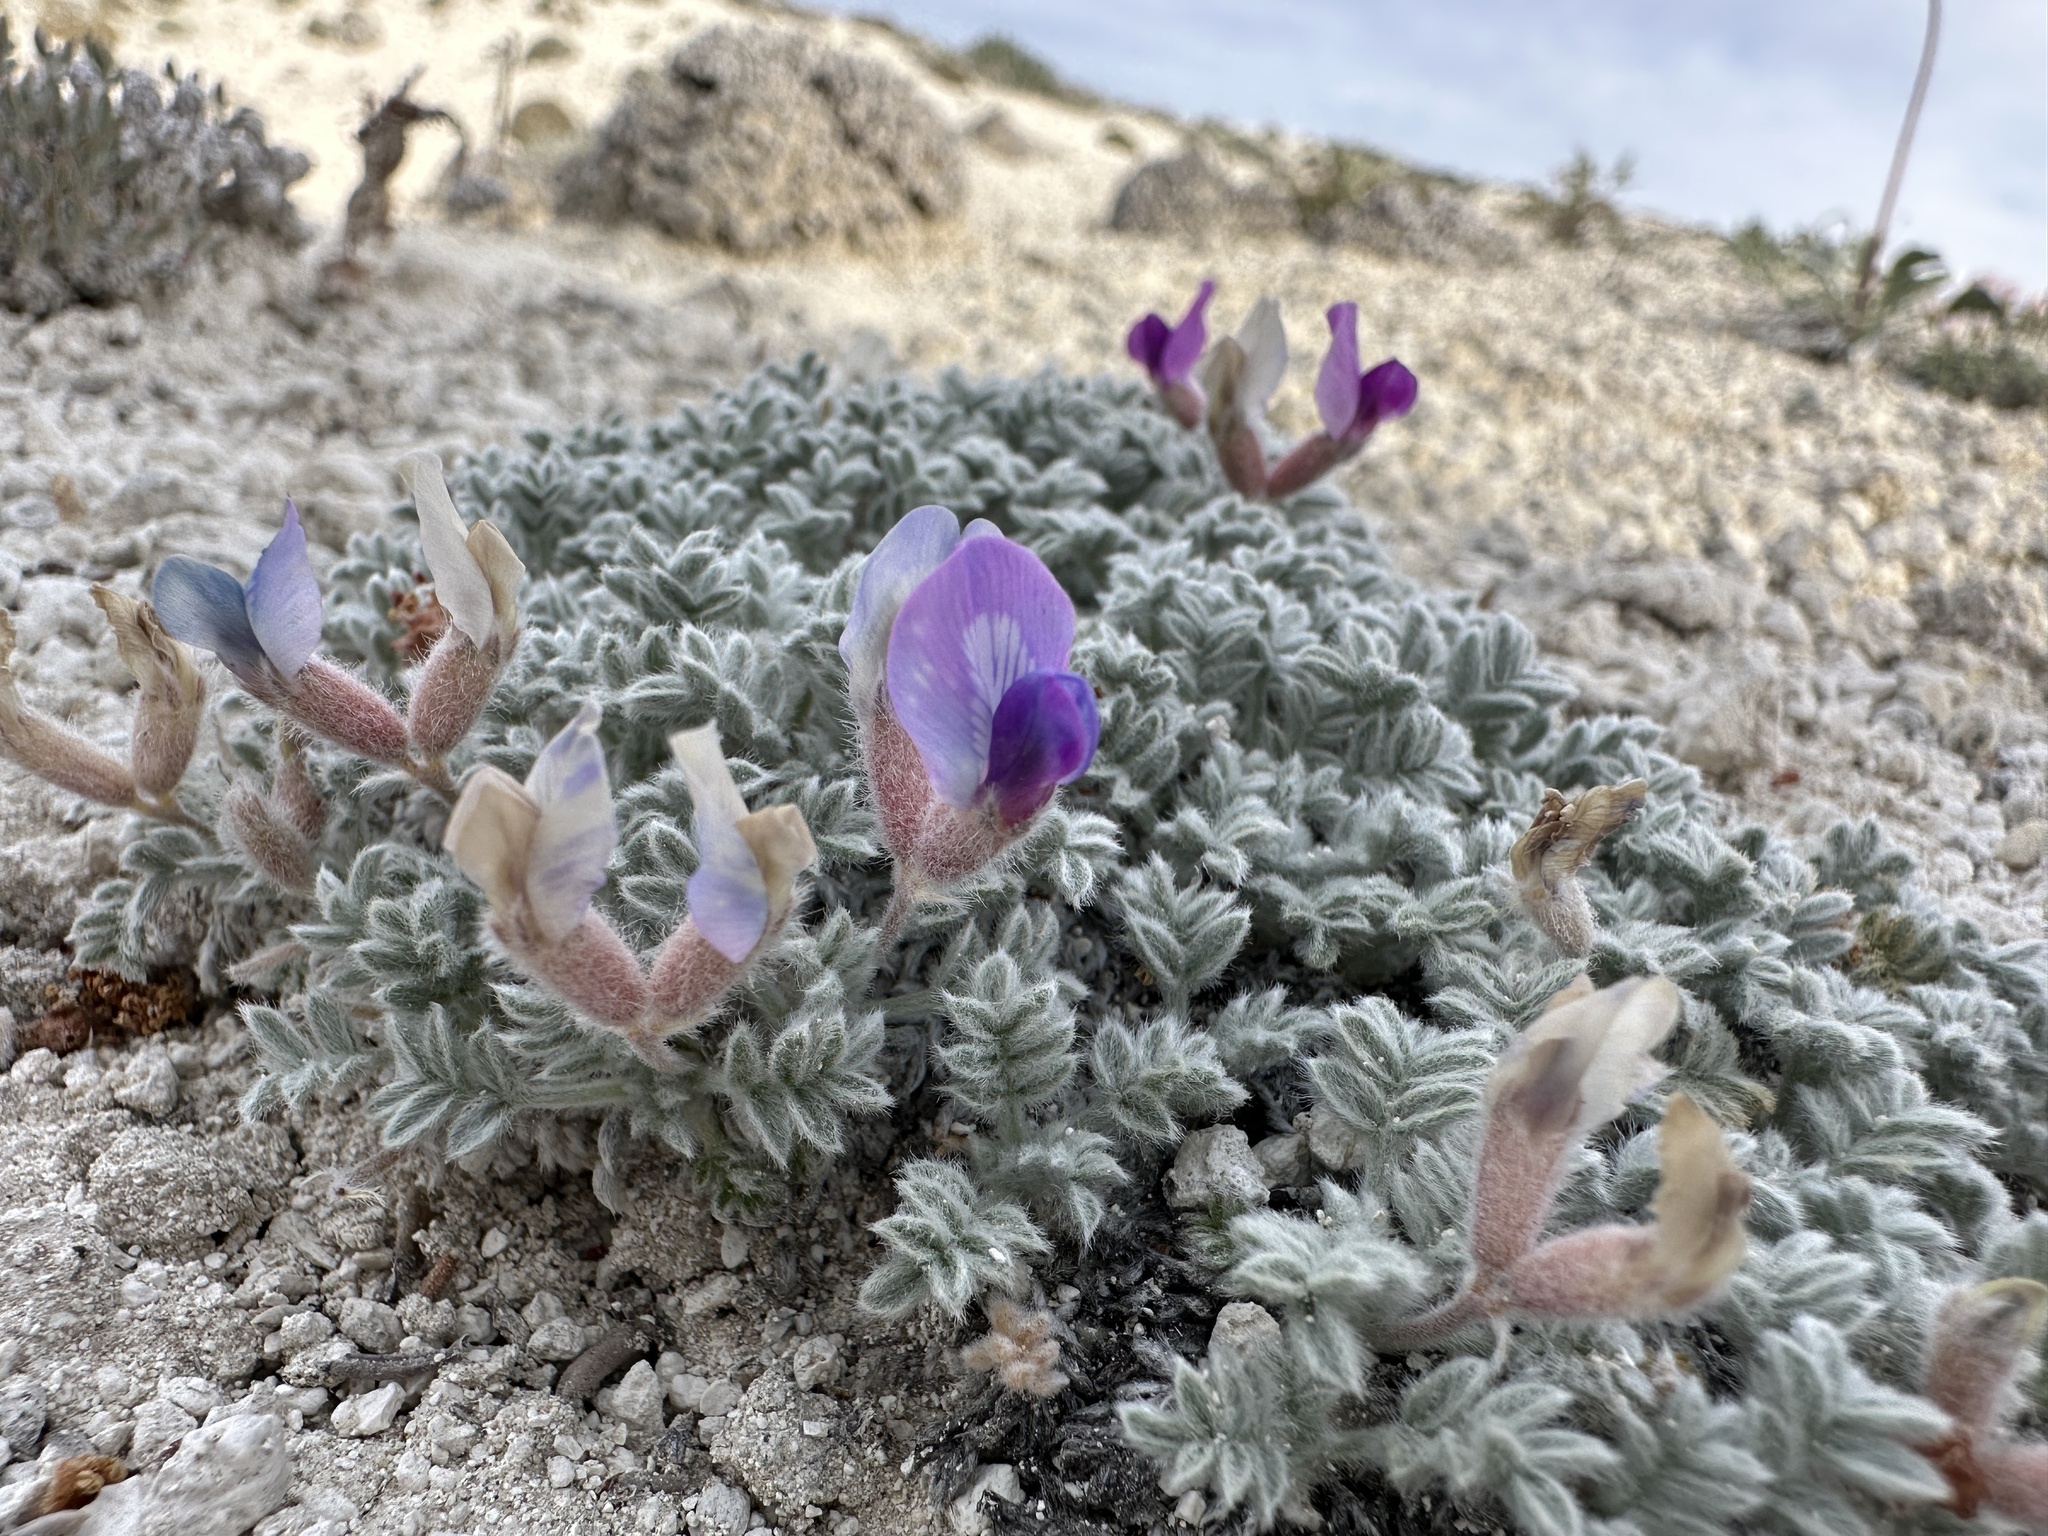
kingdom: Plantae
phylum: Tracheophyta
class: Magnoliopsida
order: Fabales
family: Fabaceae
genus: Oxytropis
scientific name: Oxytropis oreophila
